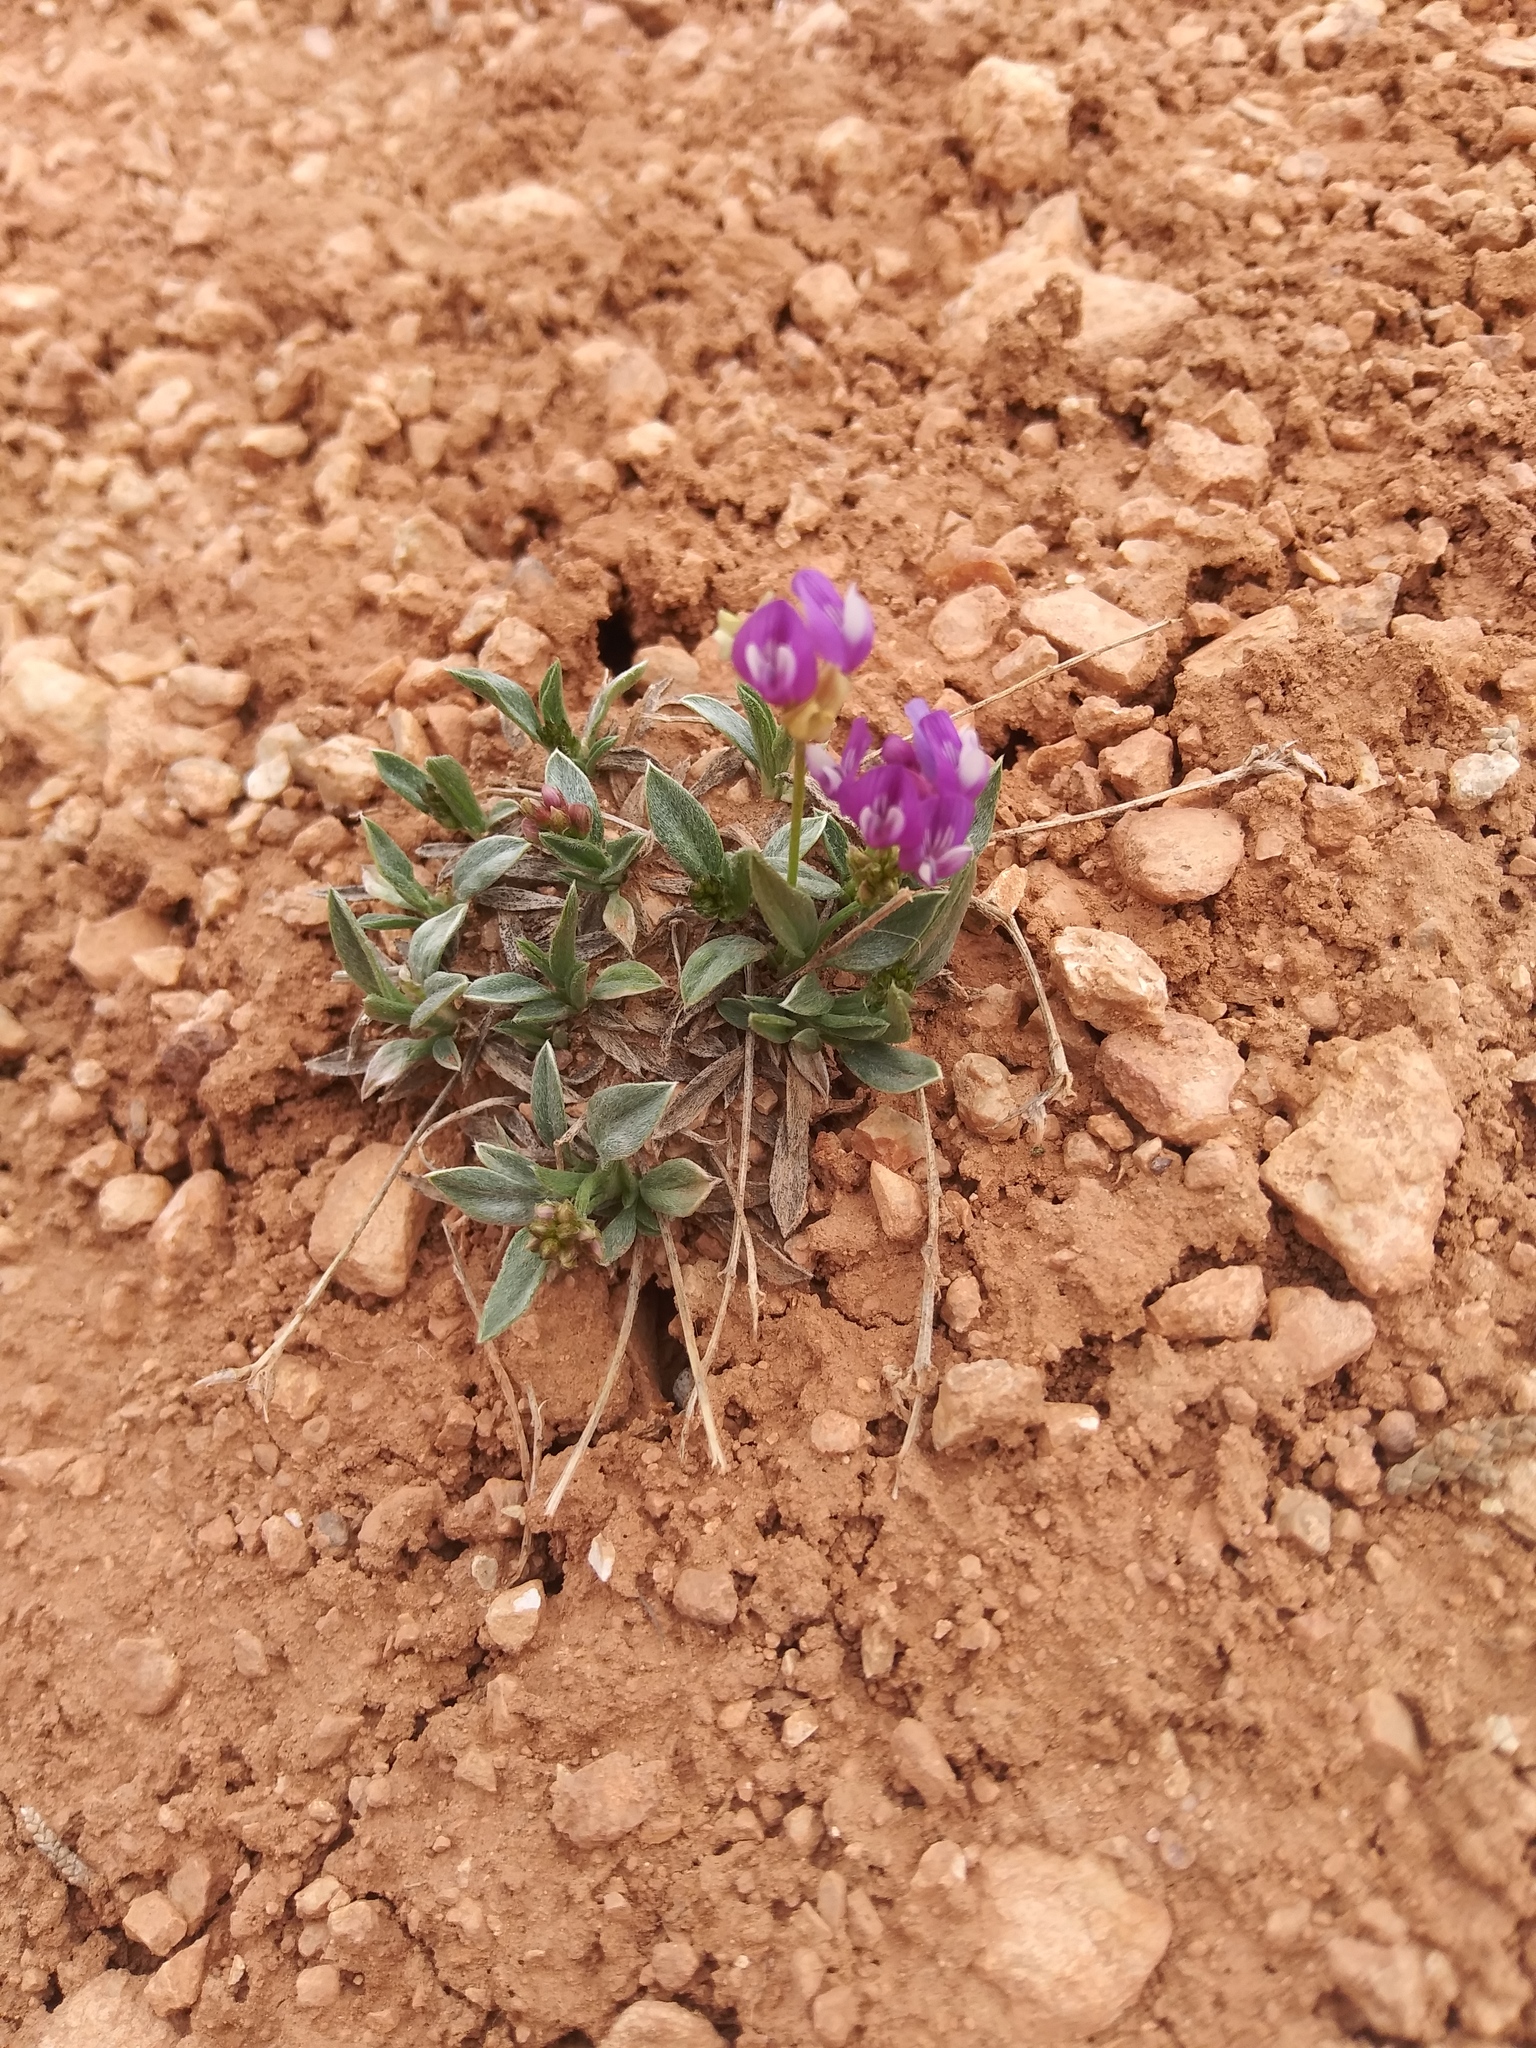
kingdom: Plantae
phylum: Tracheophyta
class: Magnoliopsida
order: Fabales
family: Fabaceae
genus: Astragalus
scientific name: Astragalus spatulatus
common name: Draba milk-vetch
